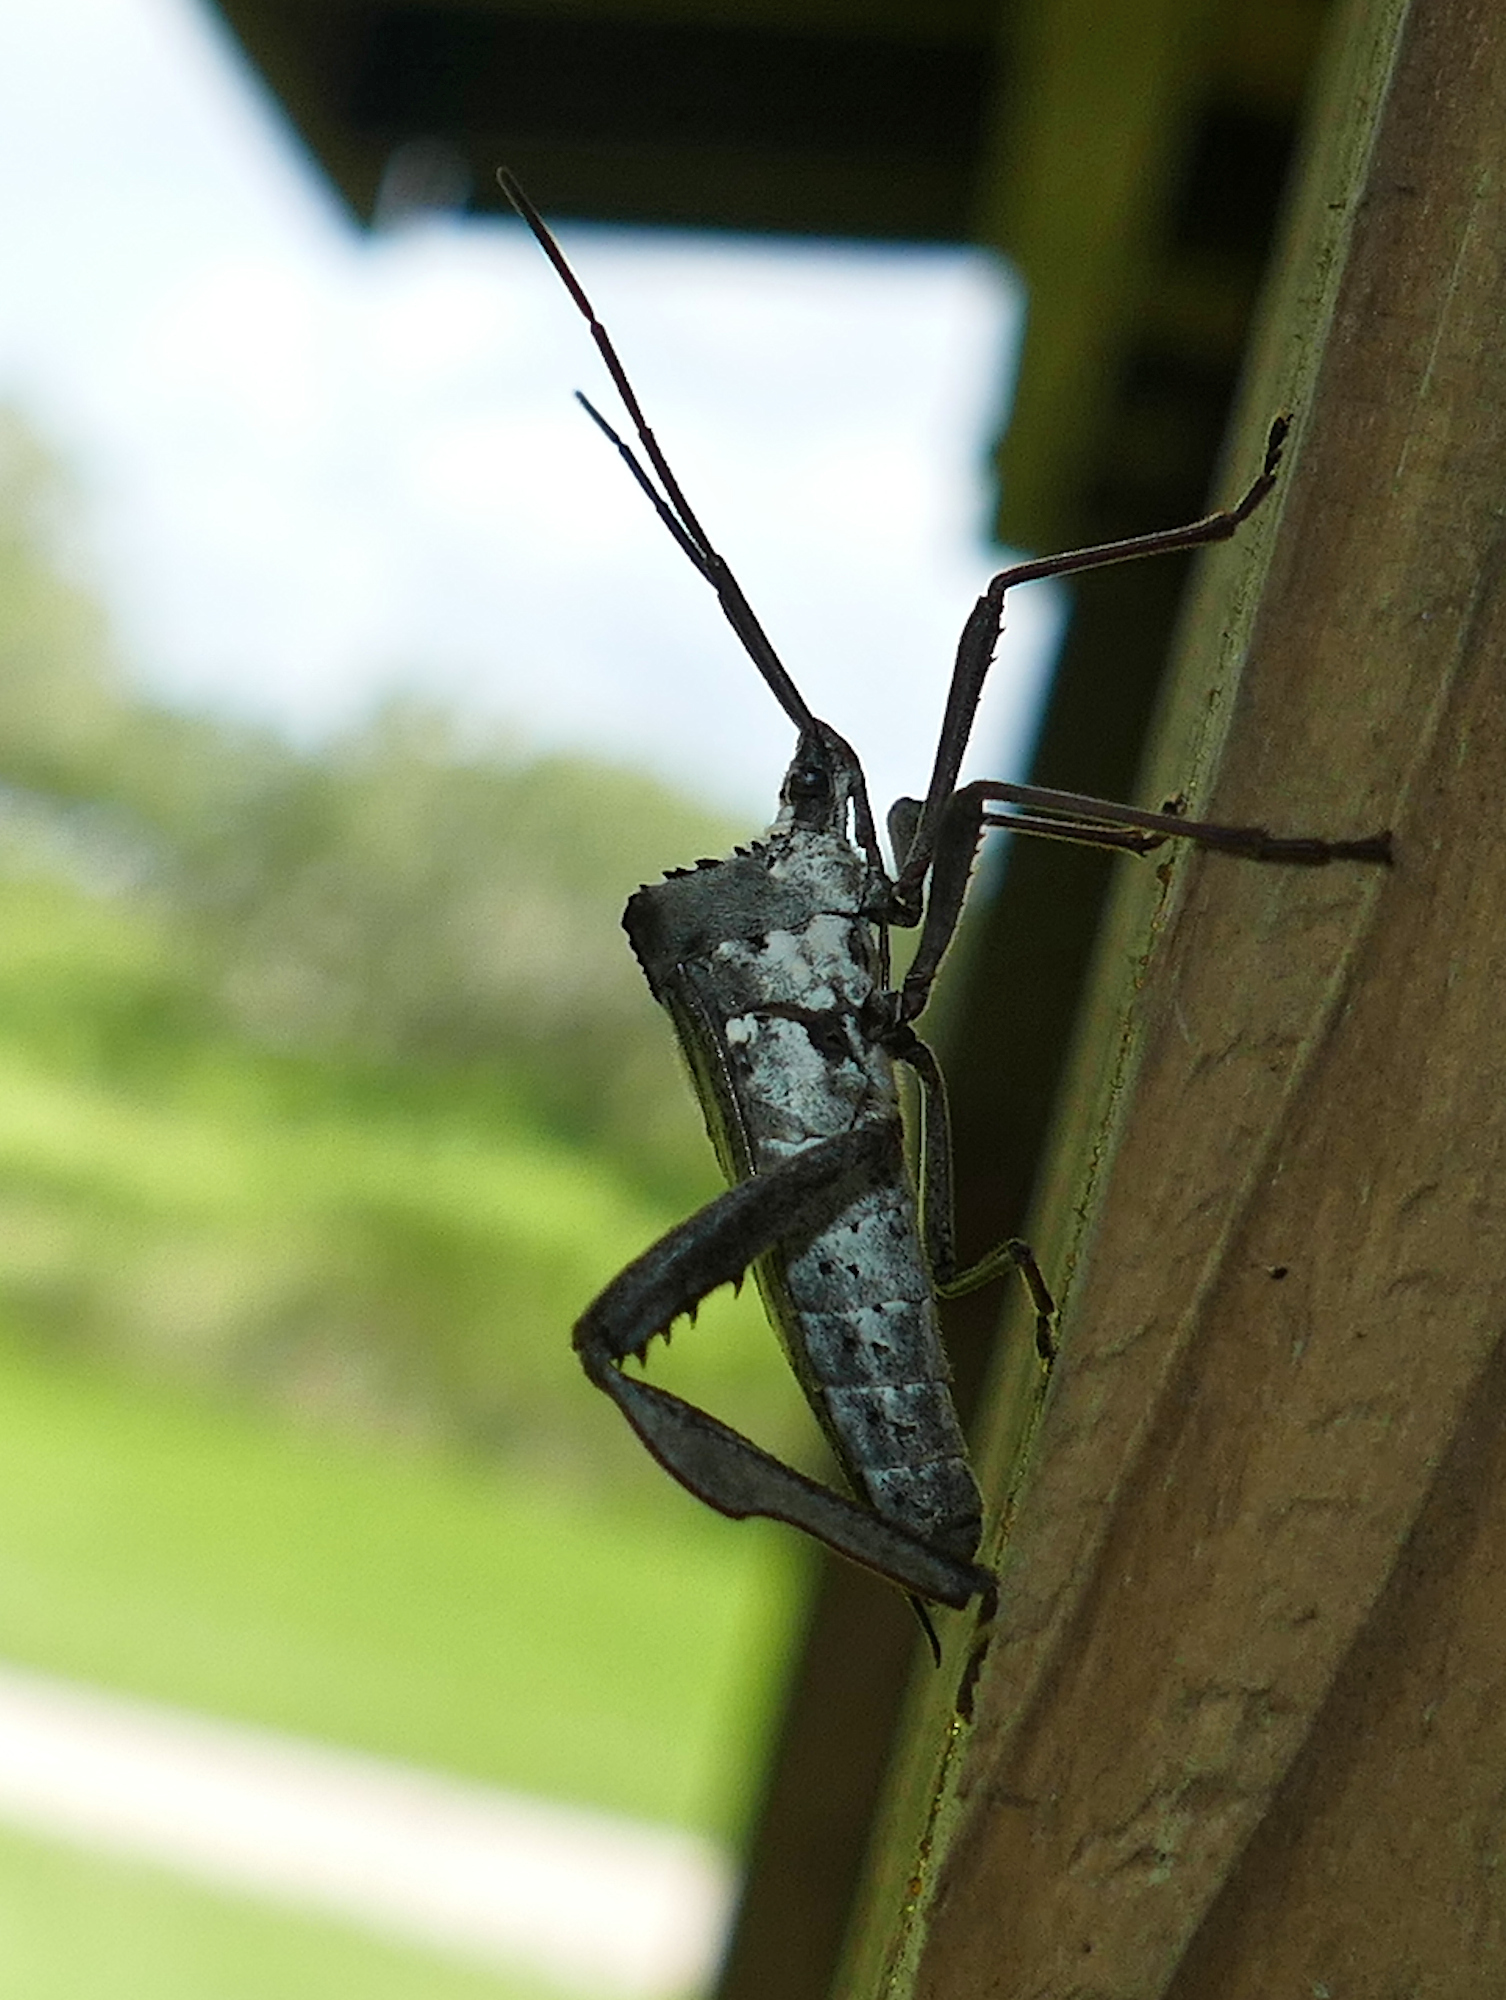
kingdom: Animalia
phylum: Arthropoda
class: Insecta
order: Hemiptera
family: Coreidae
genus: Acanthocephala
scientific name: Acanthocephala declivis
